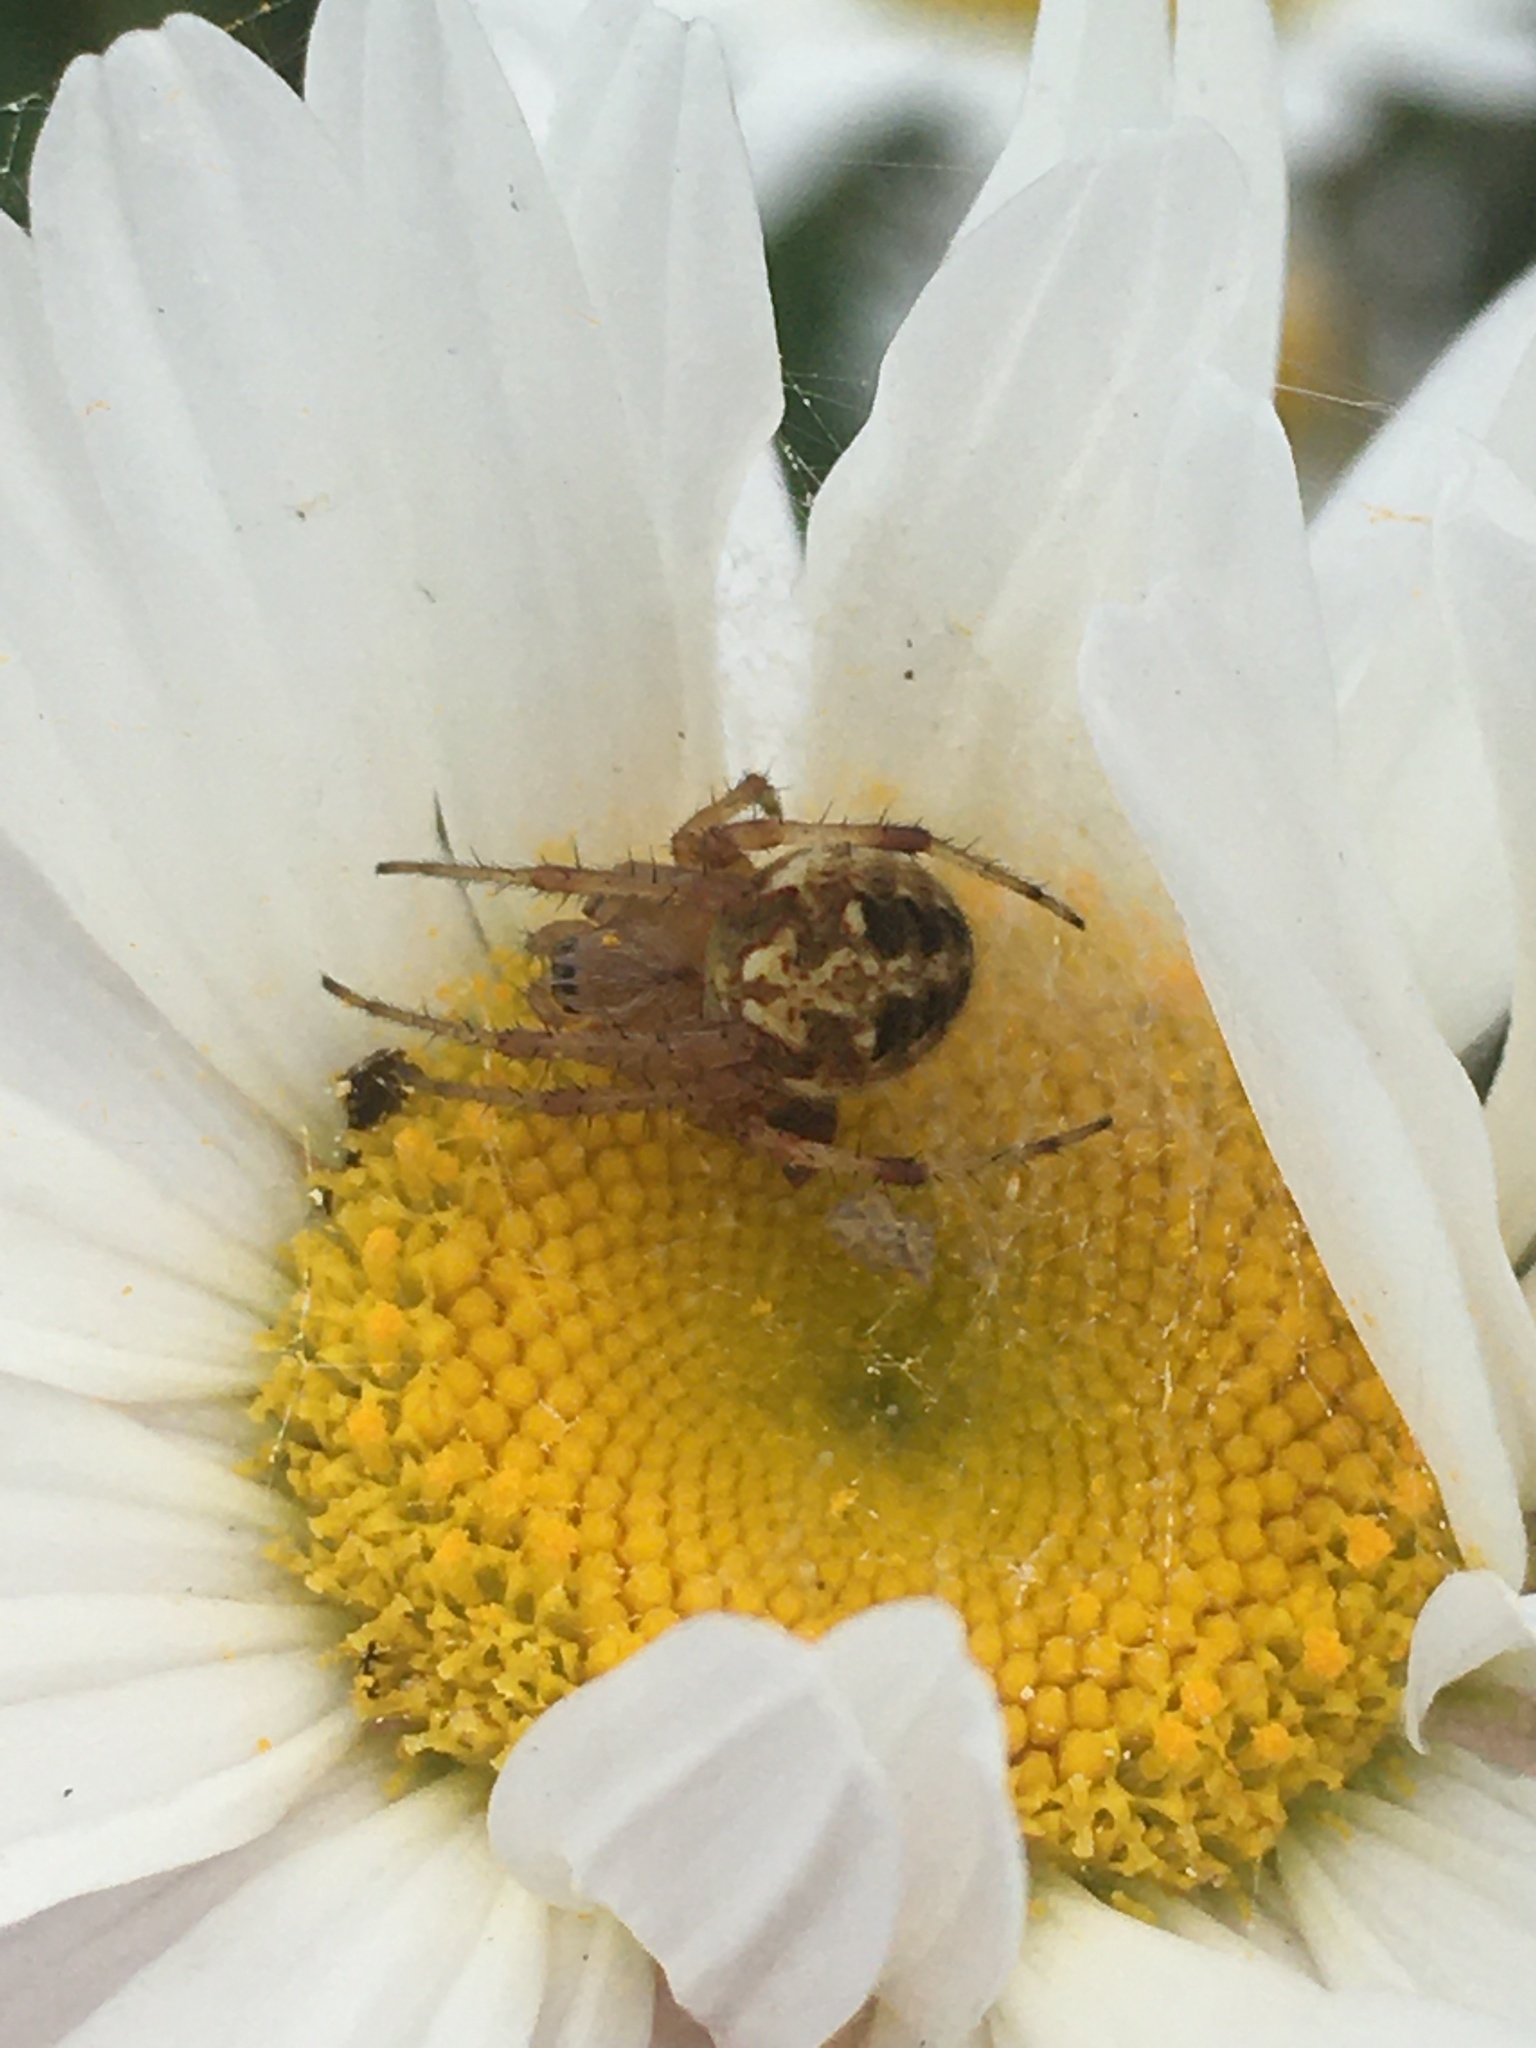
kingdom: Animalia
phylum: Arthropoda
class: Arachnida
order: Araneae
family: Araneidae
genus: Neoscona
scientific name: Neoscona arabesca
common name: Orb weavers
